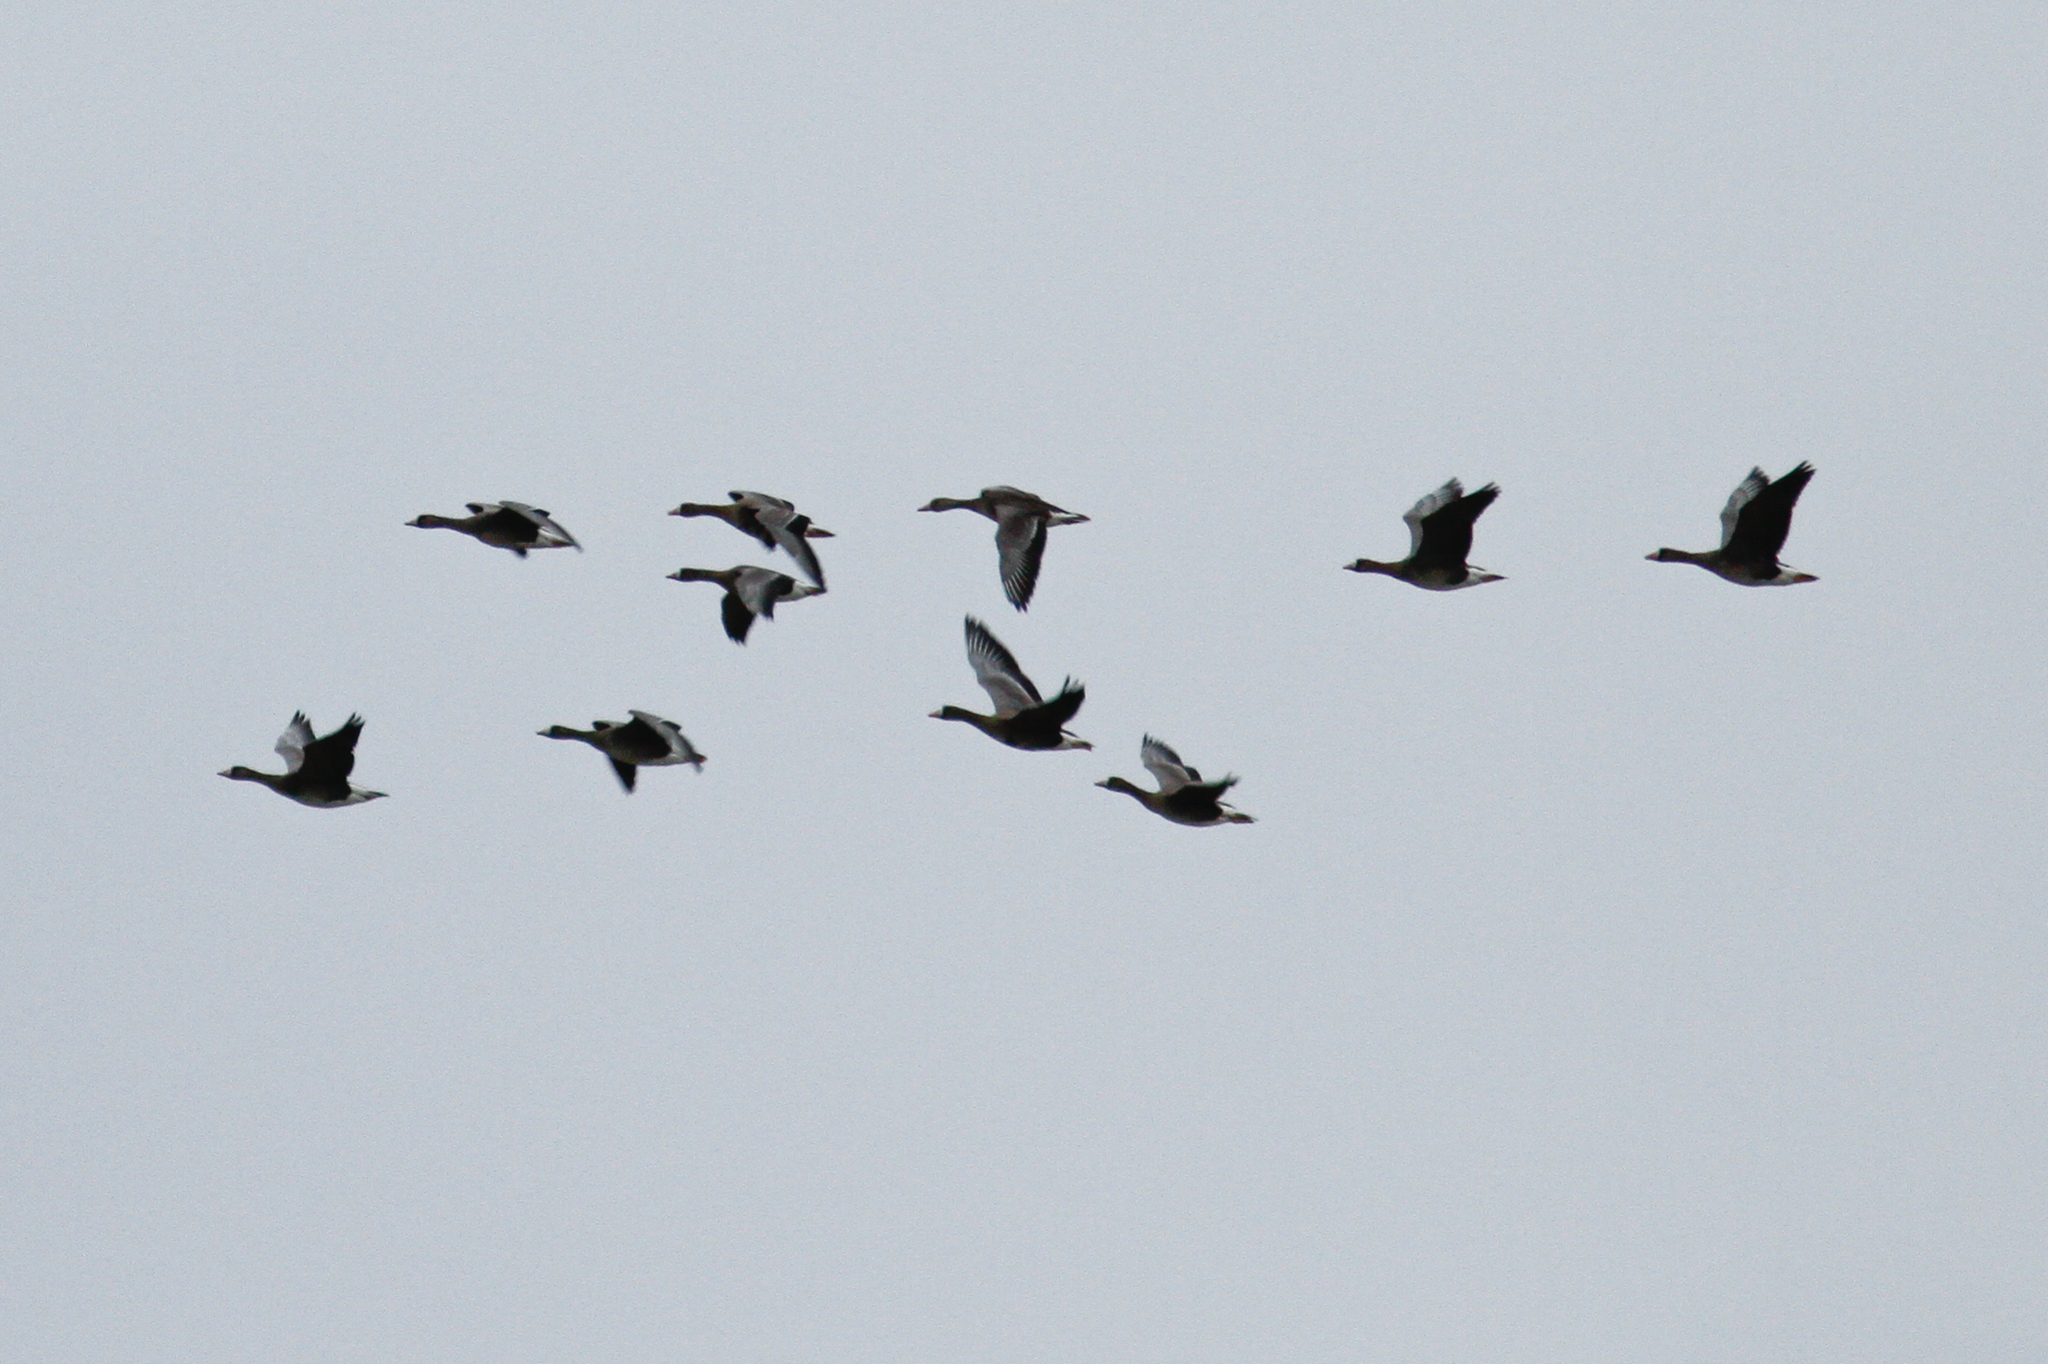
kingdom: Animalia
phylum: Chordata
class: Aves
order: Anseriformes
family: Anatidae
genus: Anser
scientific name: Anser albifrons
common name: Greater white-fronted goose
